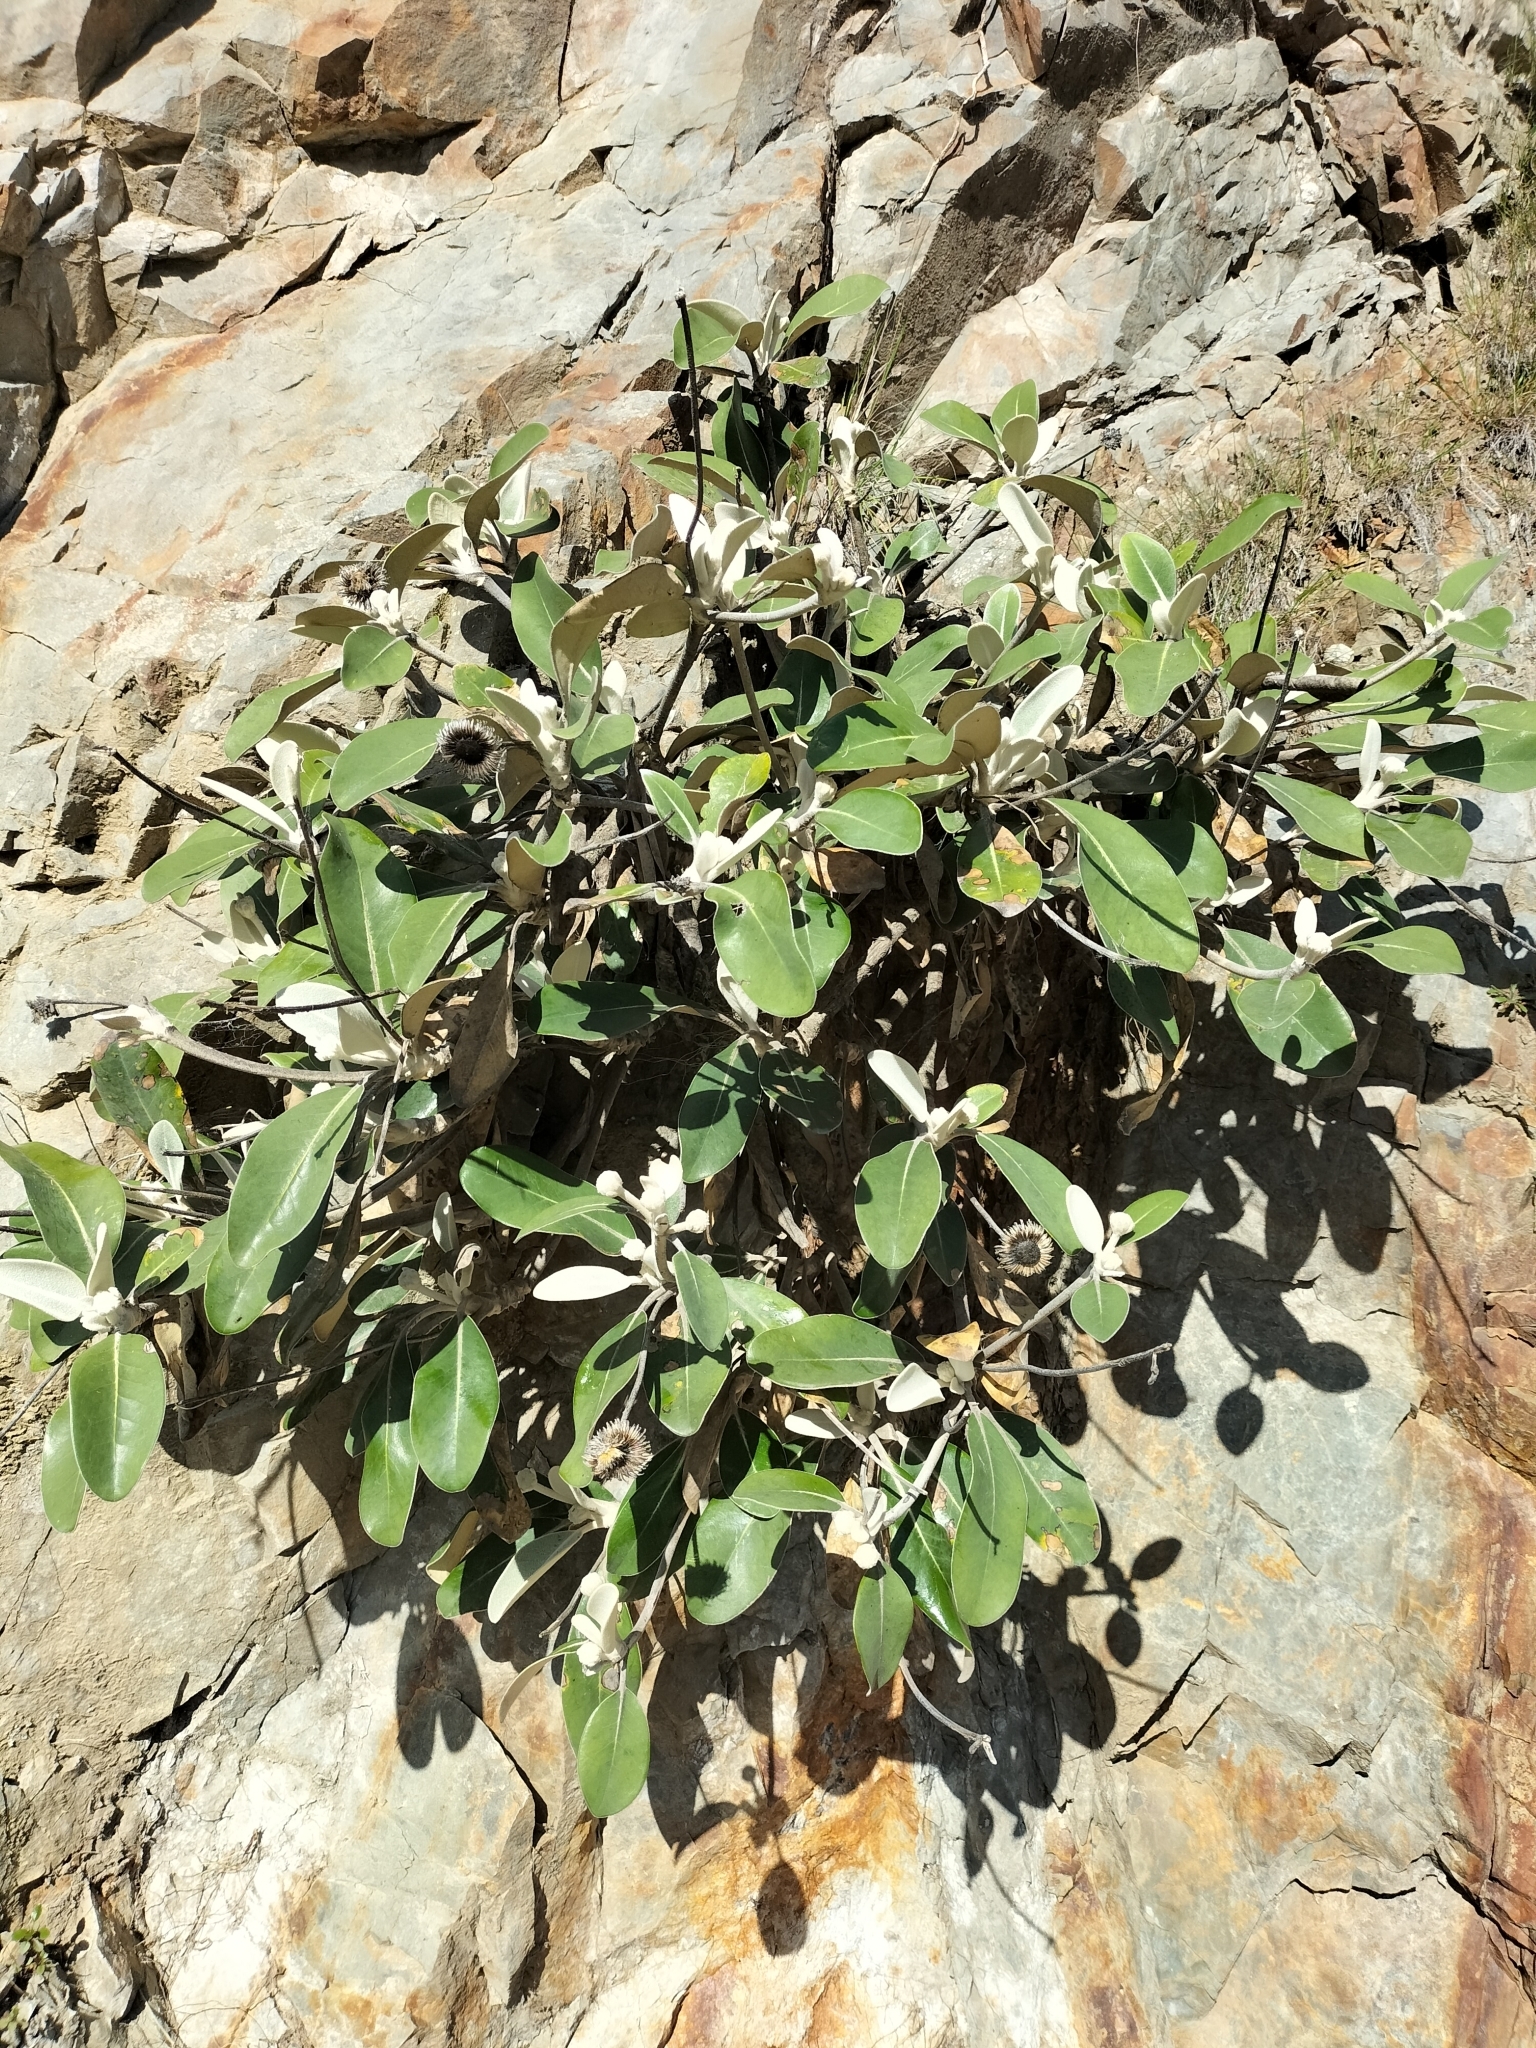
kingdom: Plantae
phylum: Tracheophyta
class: Magnoliopsida
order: Asterales
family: Asteraceae
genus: Pachystegia
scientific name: Pachystegia insignis
